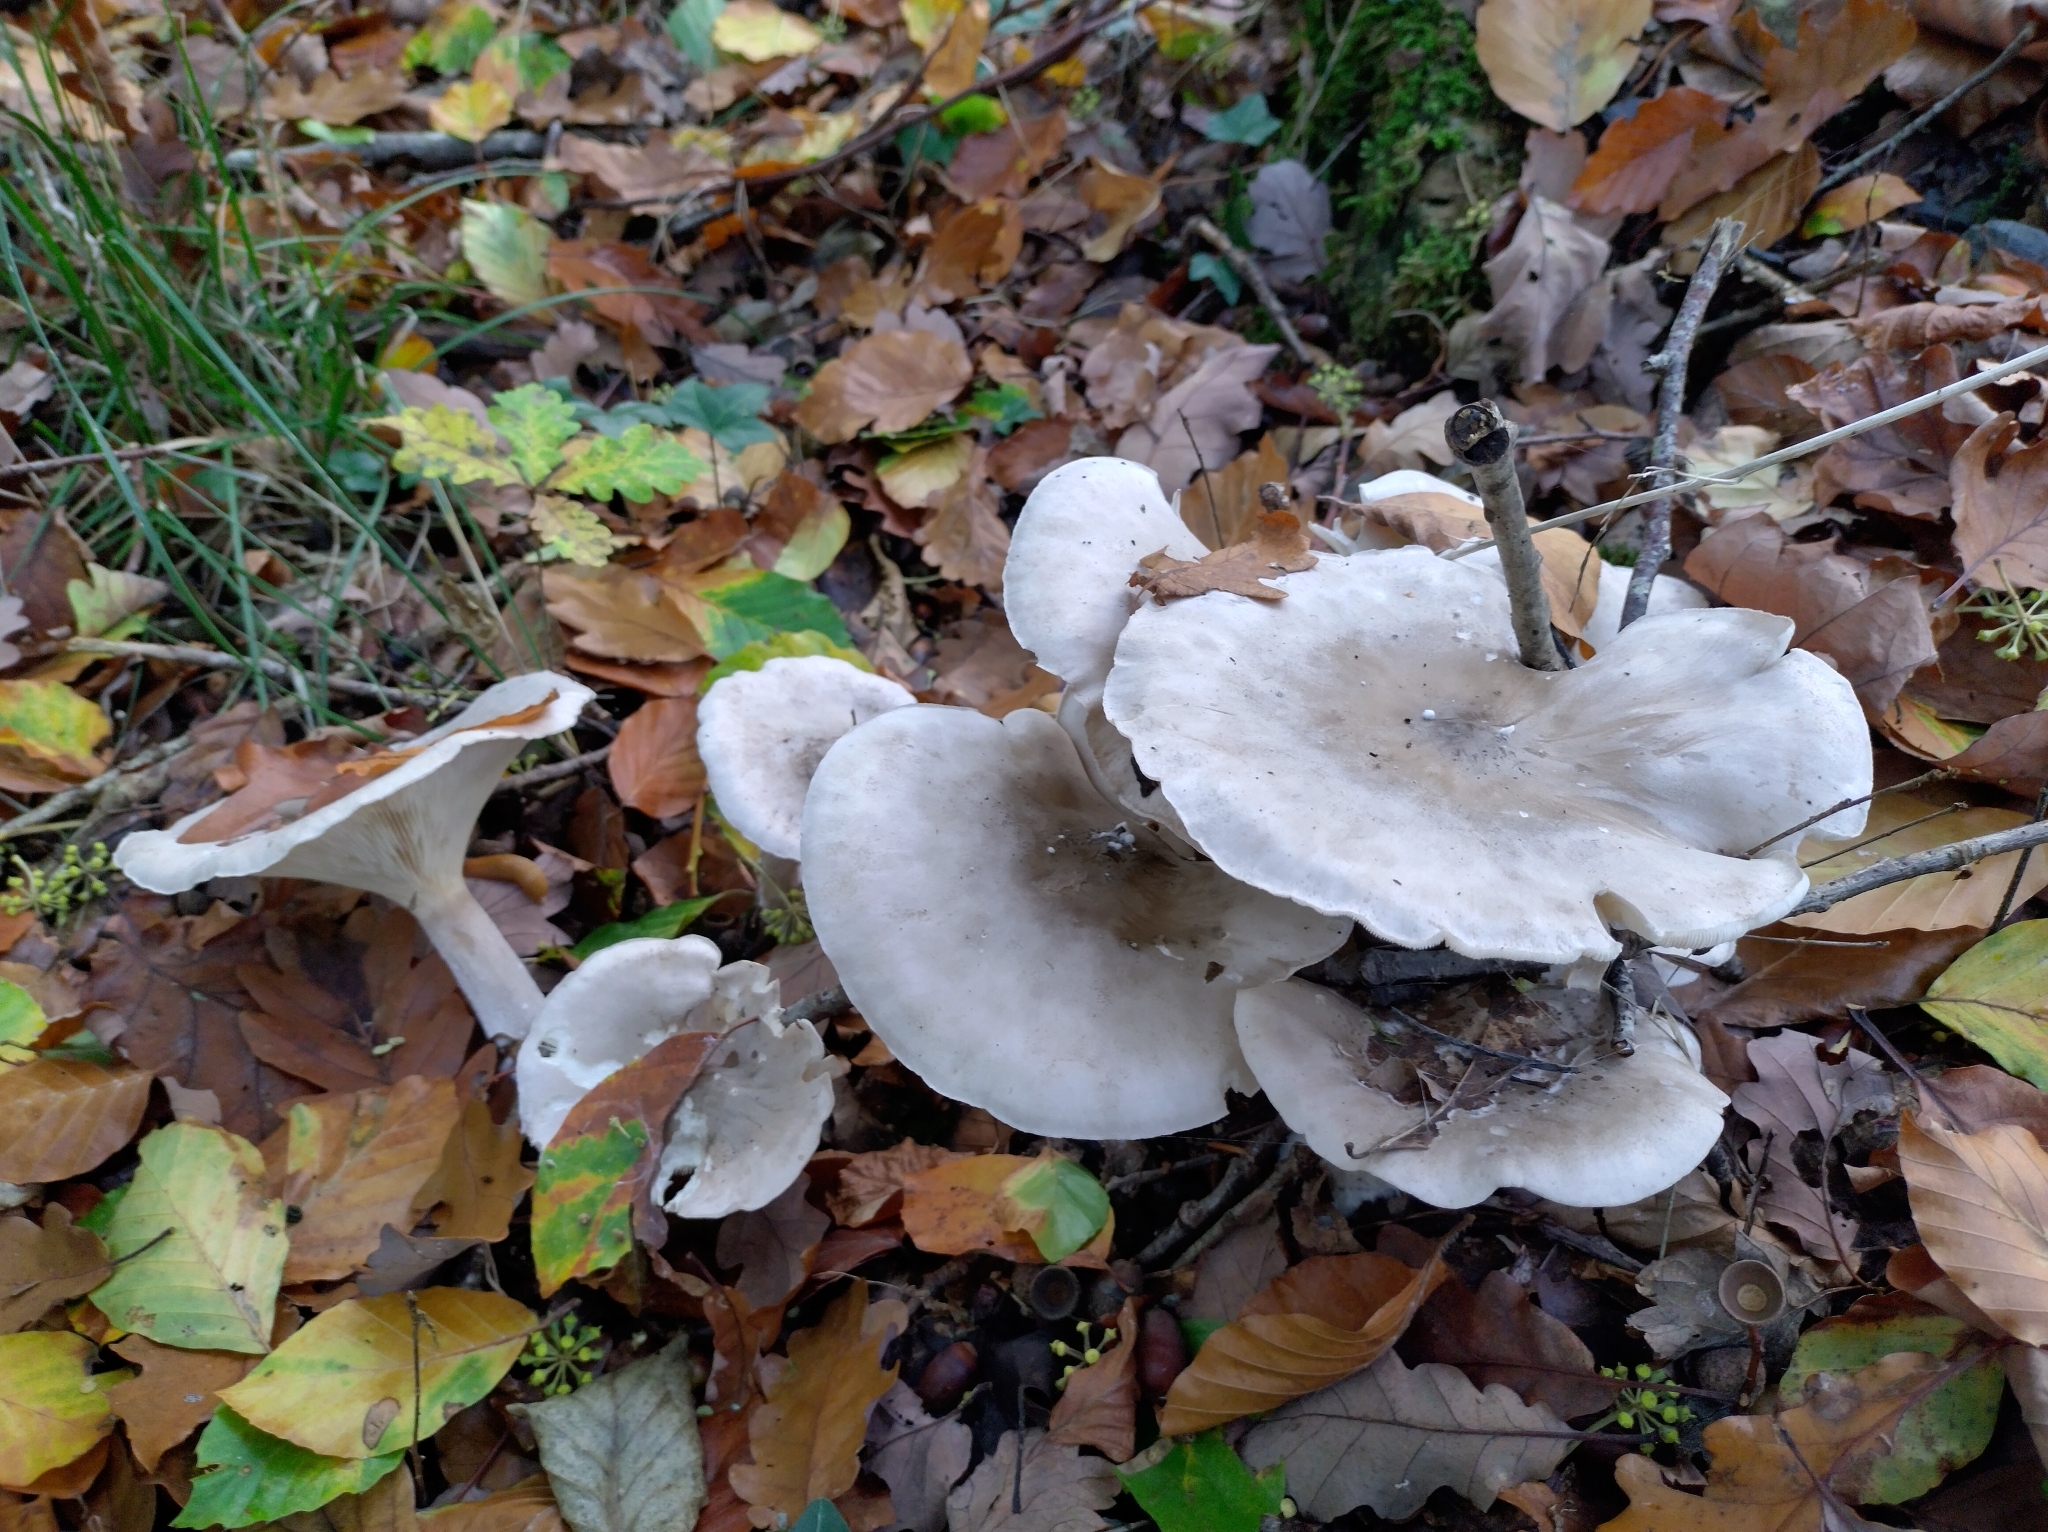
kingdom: Fungi
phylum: Basidiomycota
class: Agaricomycetes
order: Agaricales
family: Tricholomataceae
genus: Clitocybe
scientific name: Clitocybe nebularis
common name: Clouded agaric
